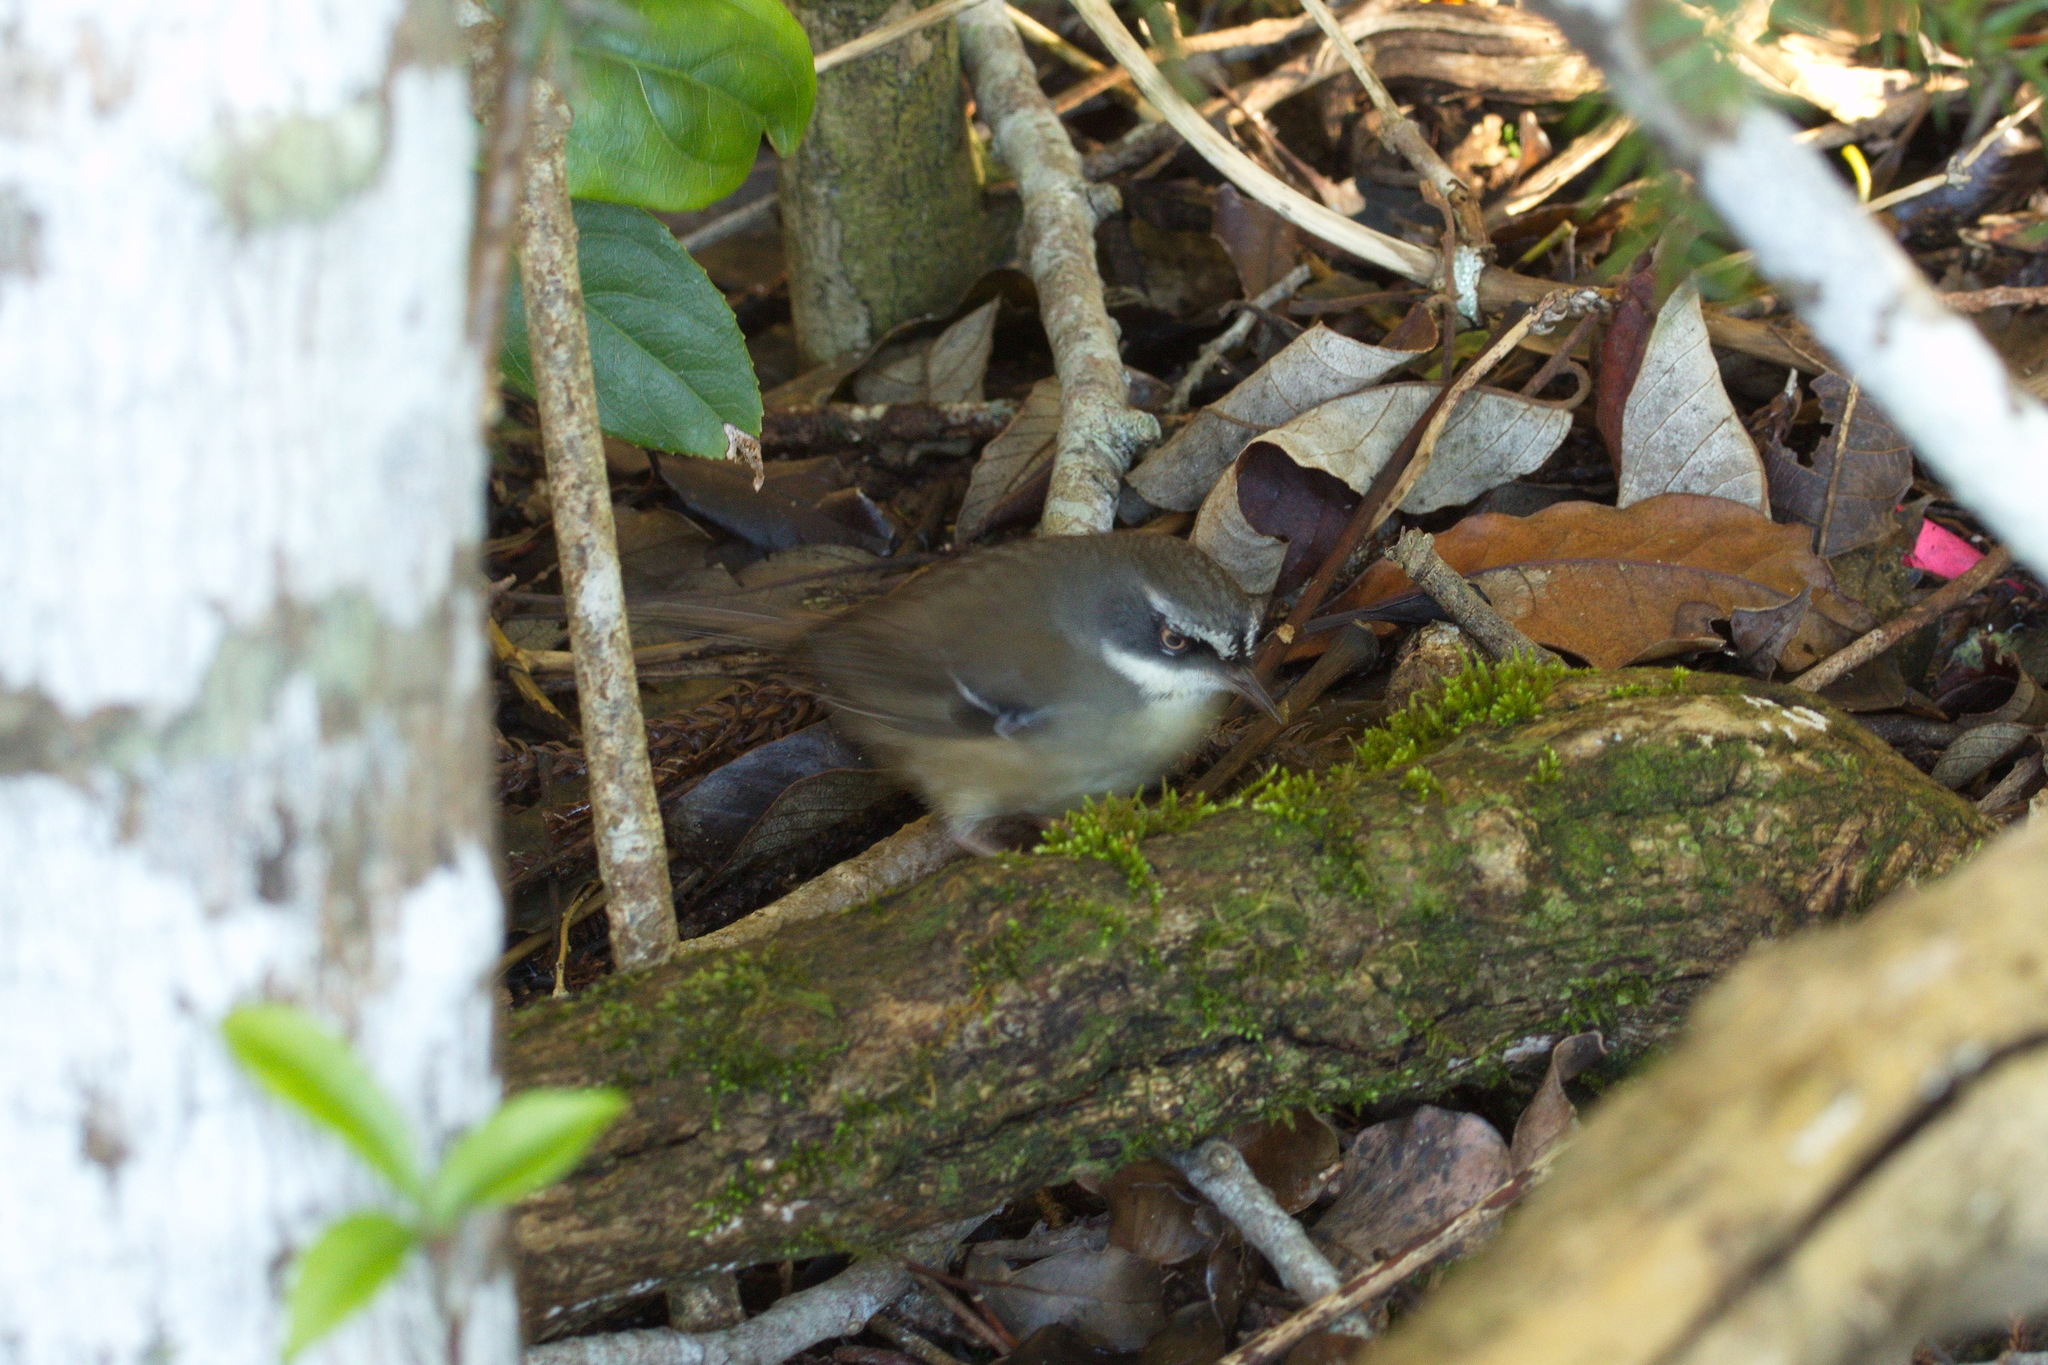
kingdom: Animalia
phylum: Chordata
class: Aves
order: Passeriformes
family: Acanthizidae
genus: Sericornis
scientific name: Sericornis frontalis
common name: White-browed scrubwren
